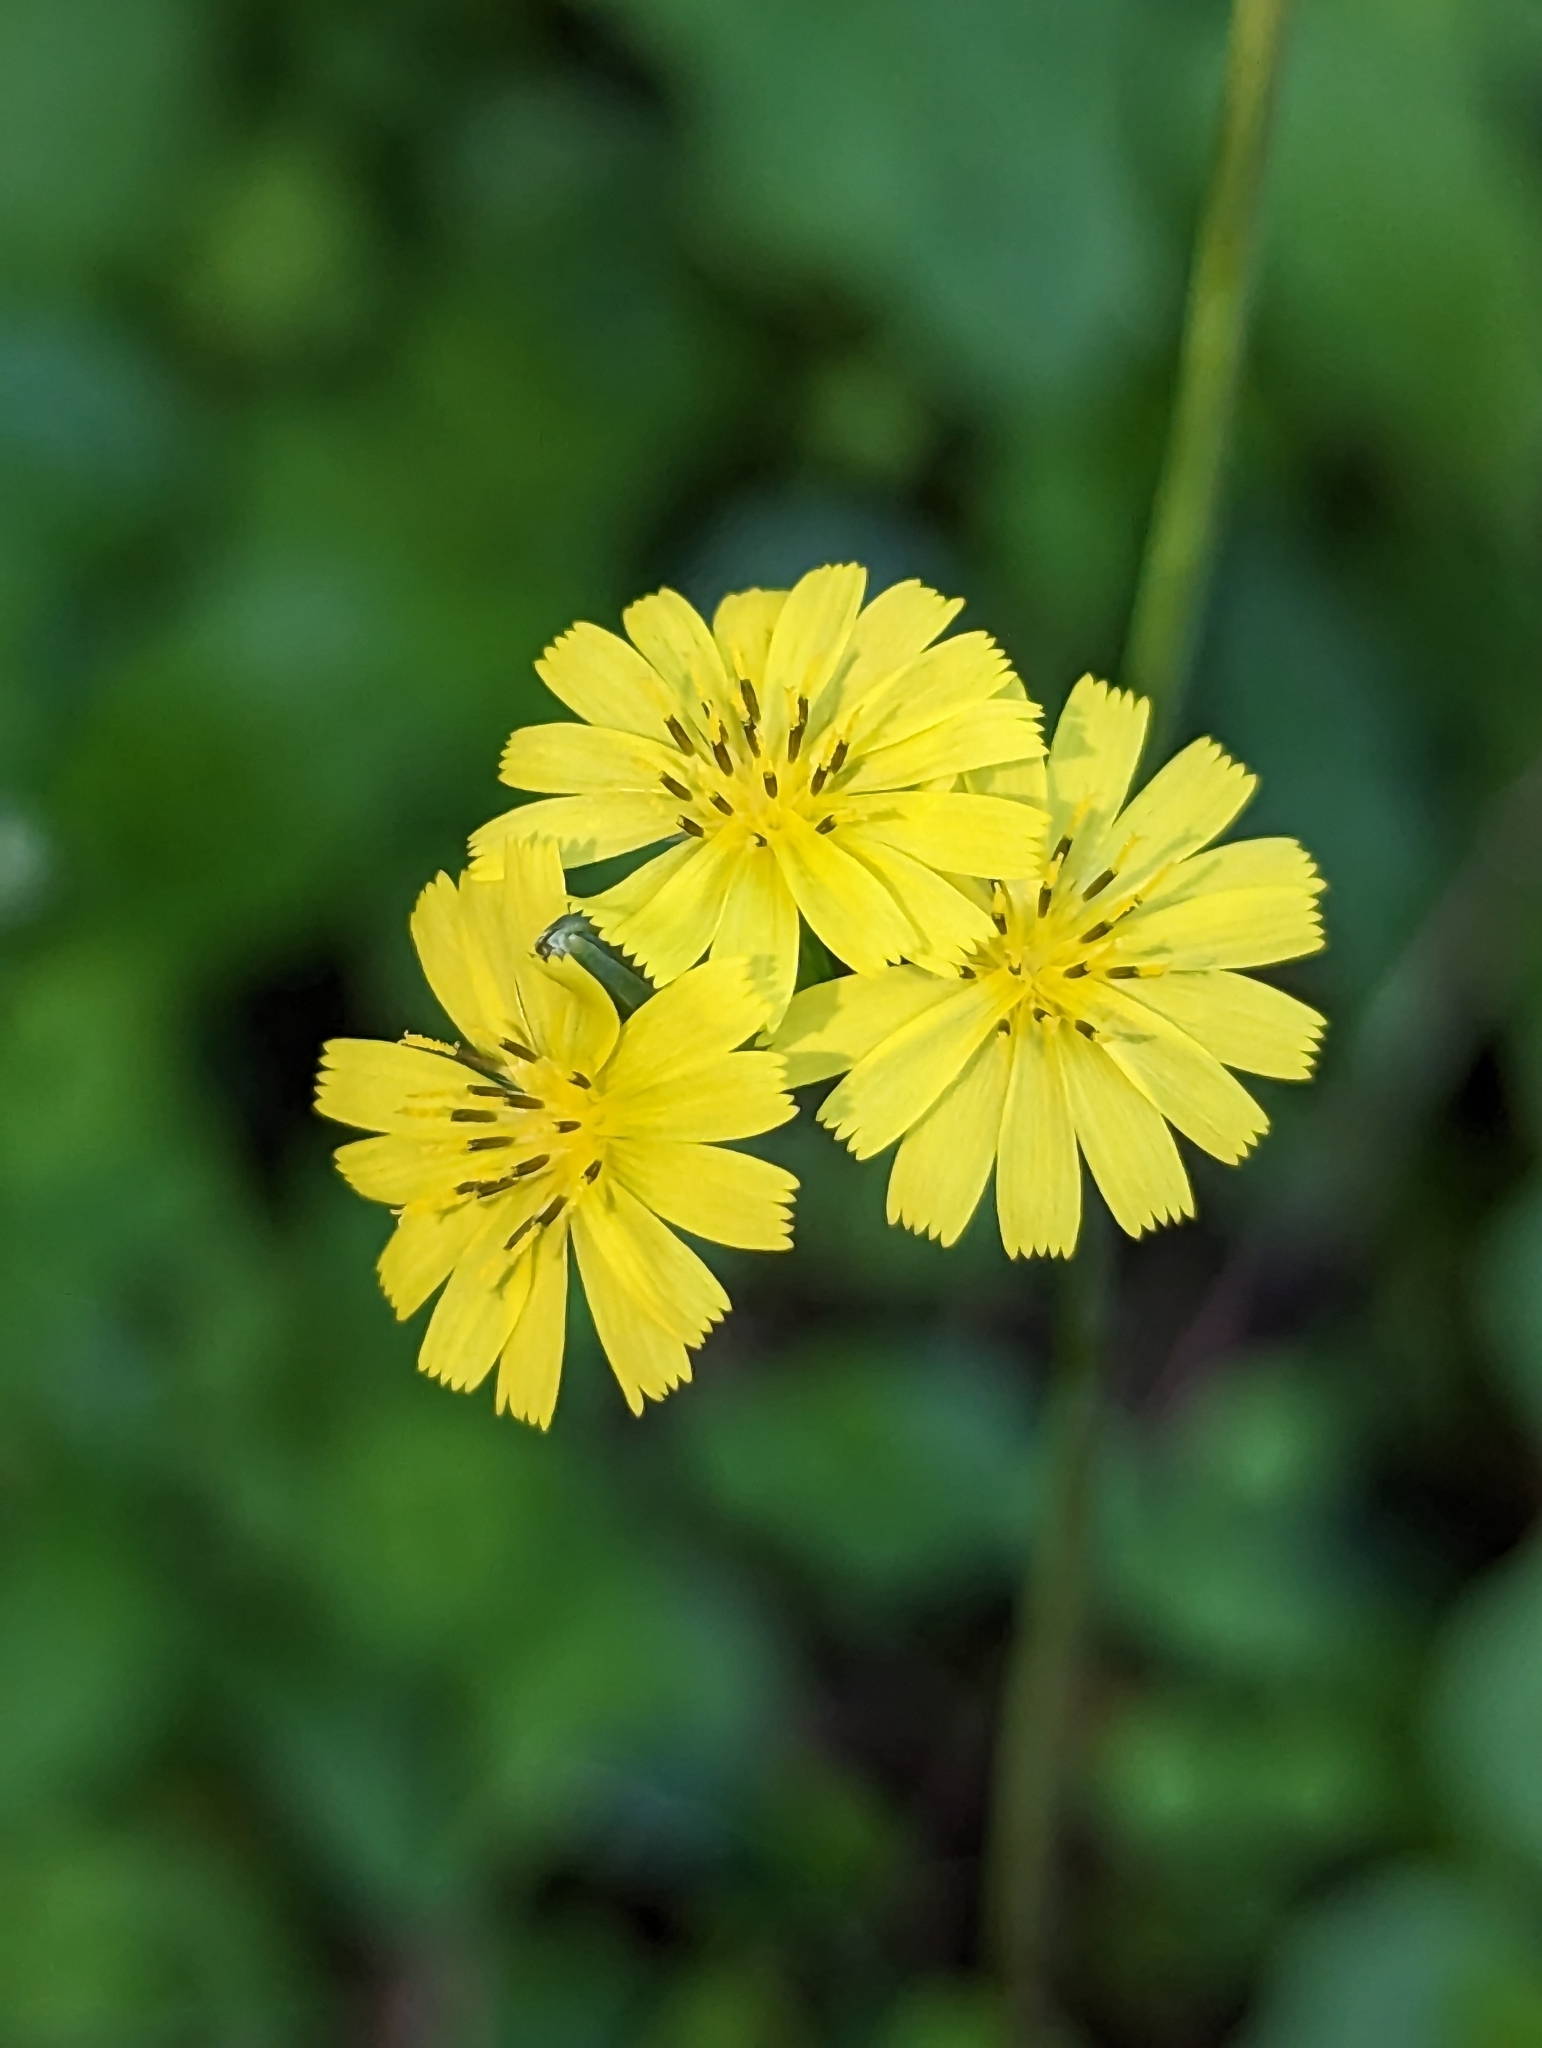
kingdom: Plantae
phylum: Tracheophyta
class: Magnoliopsida
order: Asterales
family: Asteraceae
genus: Youngia
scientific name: Youngia japonica
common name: Oriental false hawksbeard
